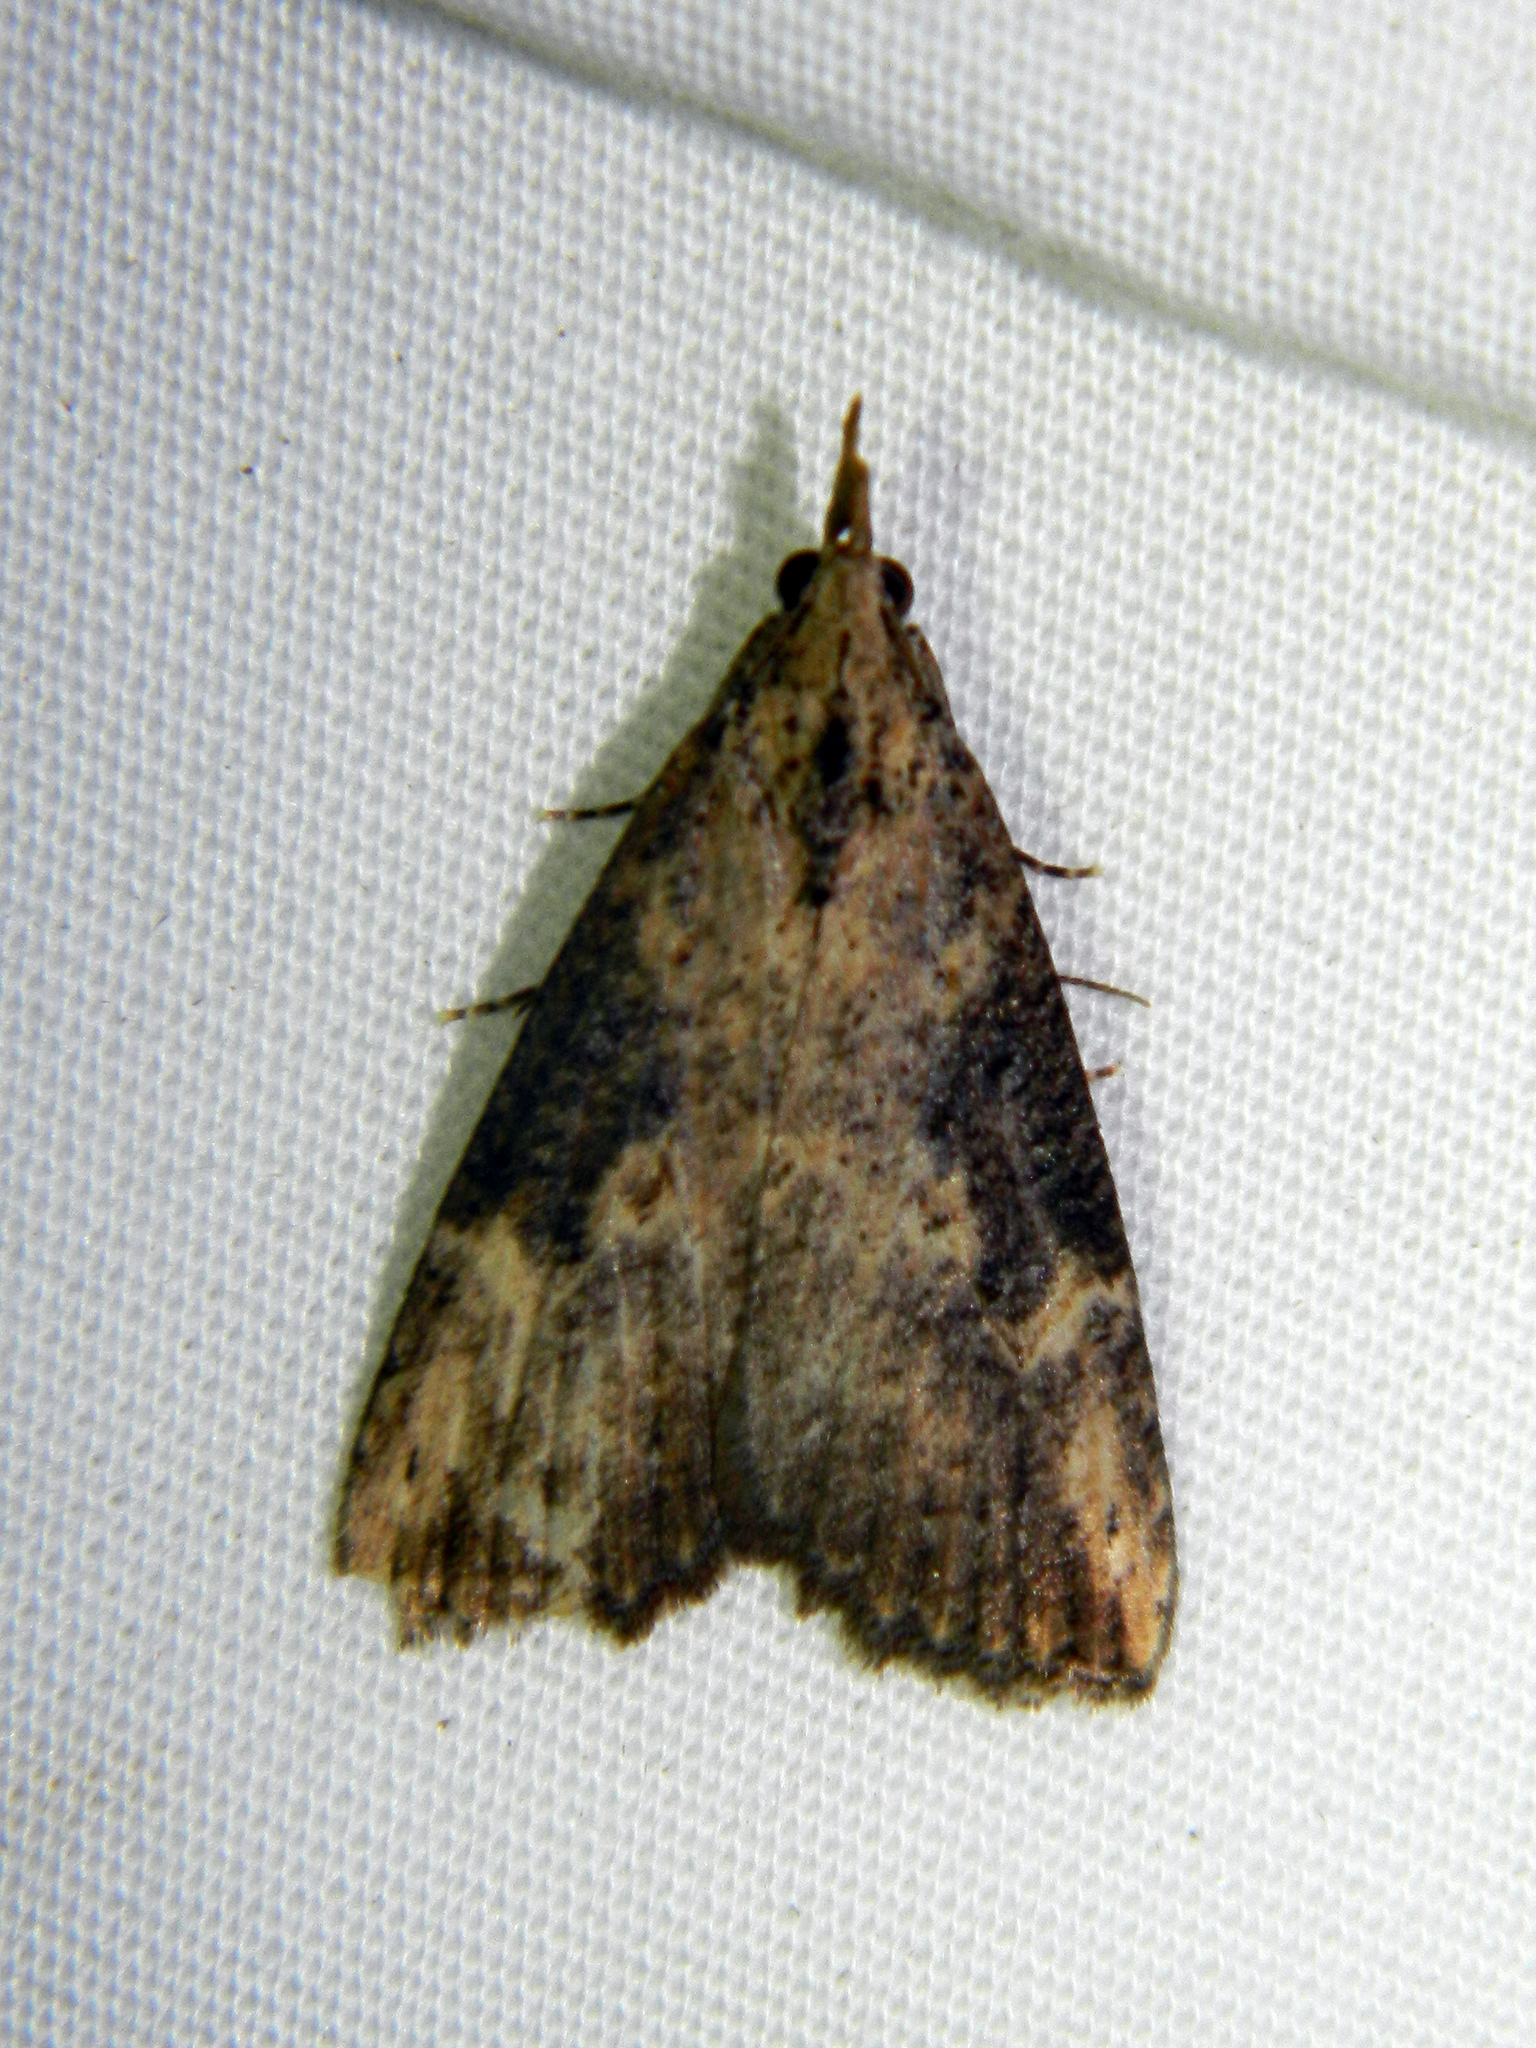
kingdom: Animalia
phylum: Arthropoda
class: Insecta
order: Lepidoptera
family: Erebidae
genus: Hypena
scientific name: Hypena humuli
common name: Hop vine snout
